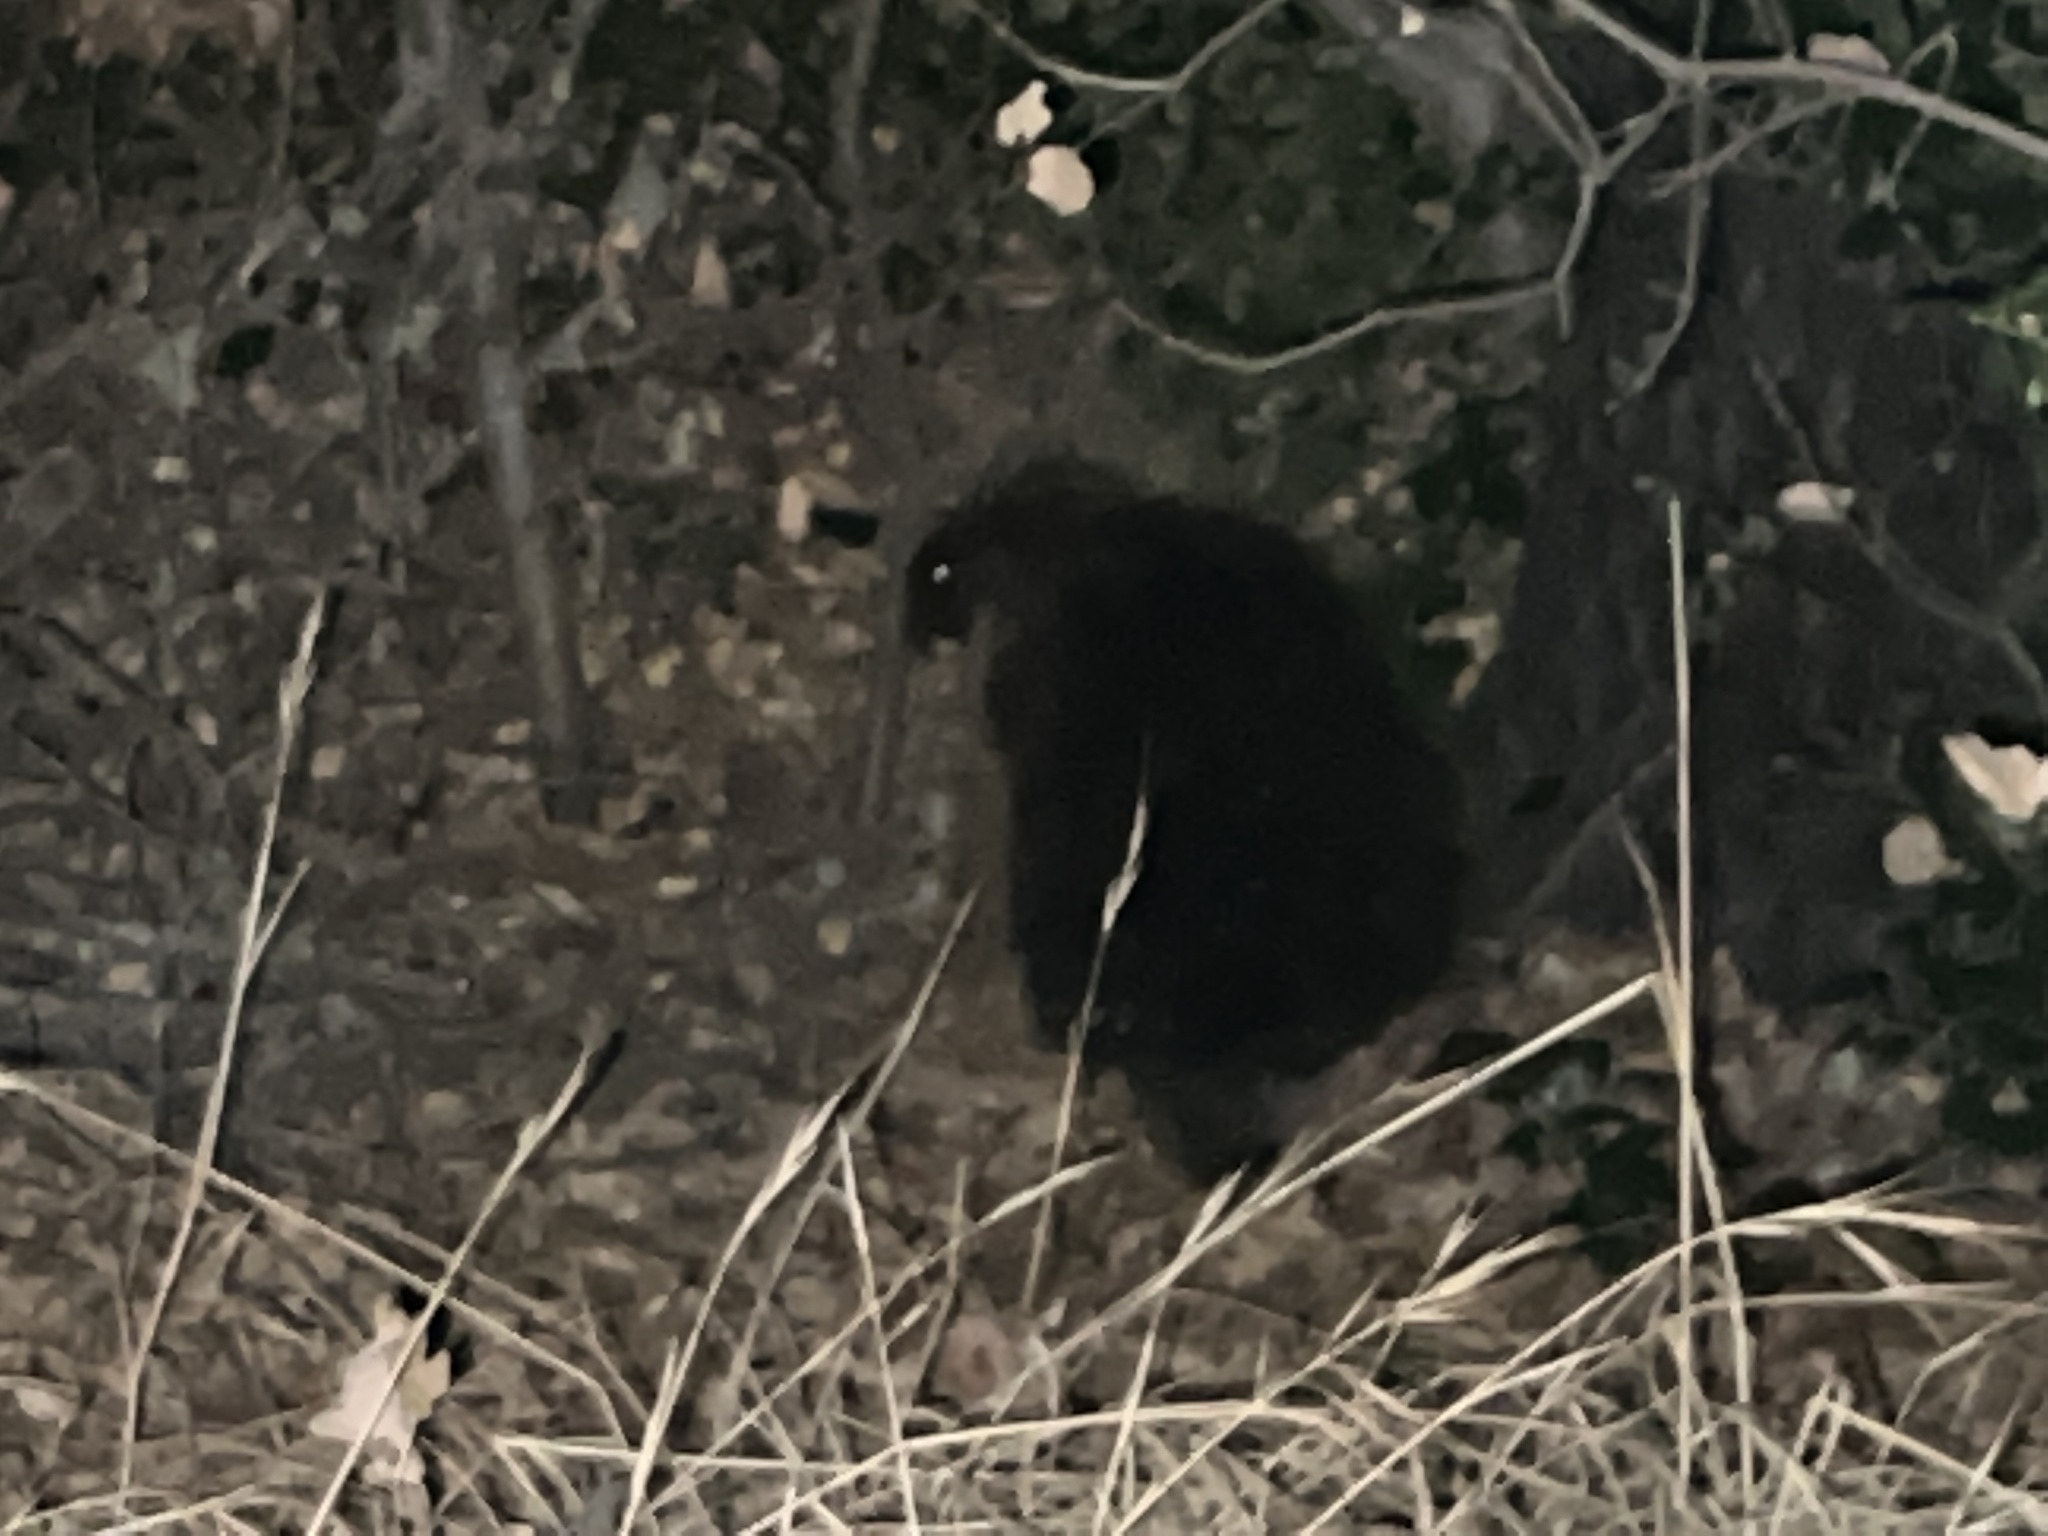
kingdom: Animalia
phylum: Chordata
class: Mammalia
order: Rodentia
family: Erethizontidae
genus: Erethizon
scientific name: Erethizon dorsatus
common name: North american porcupine
